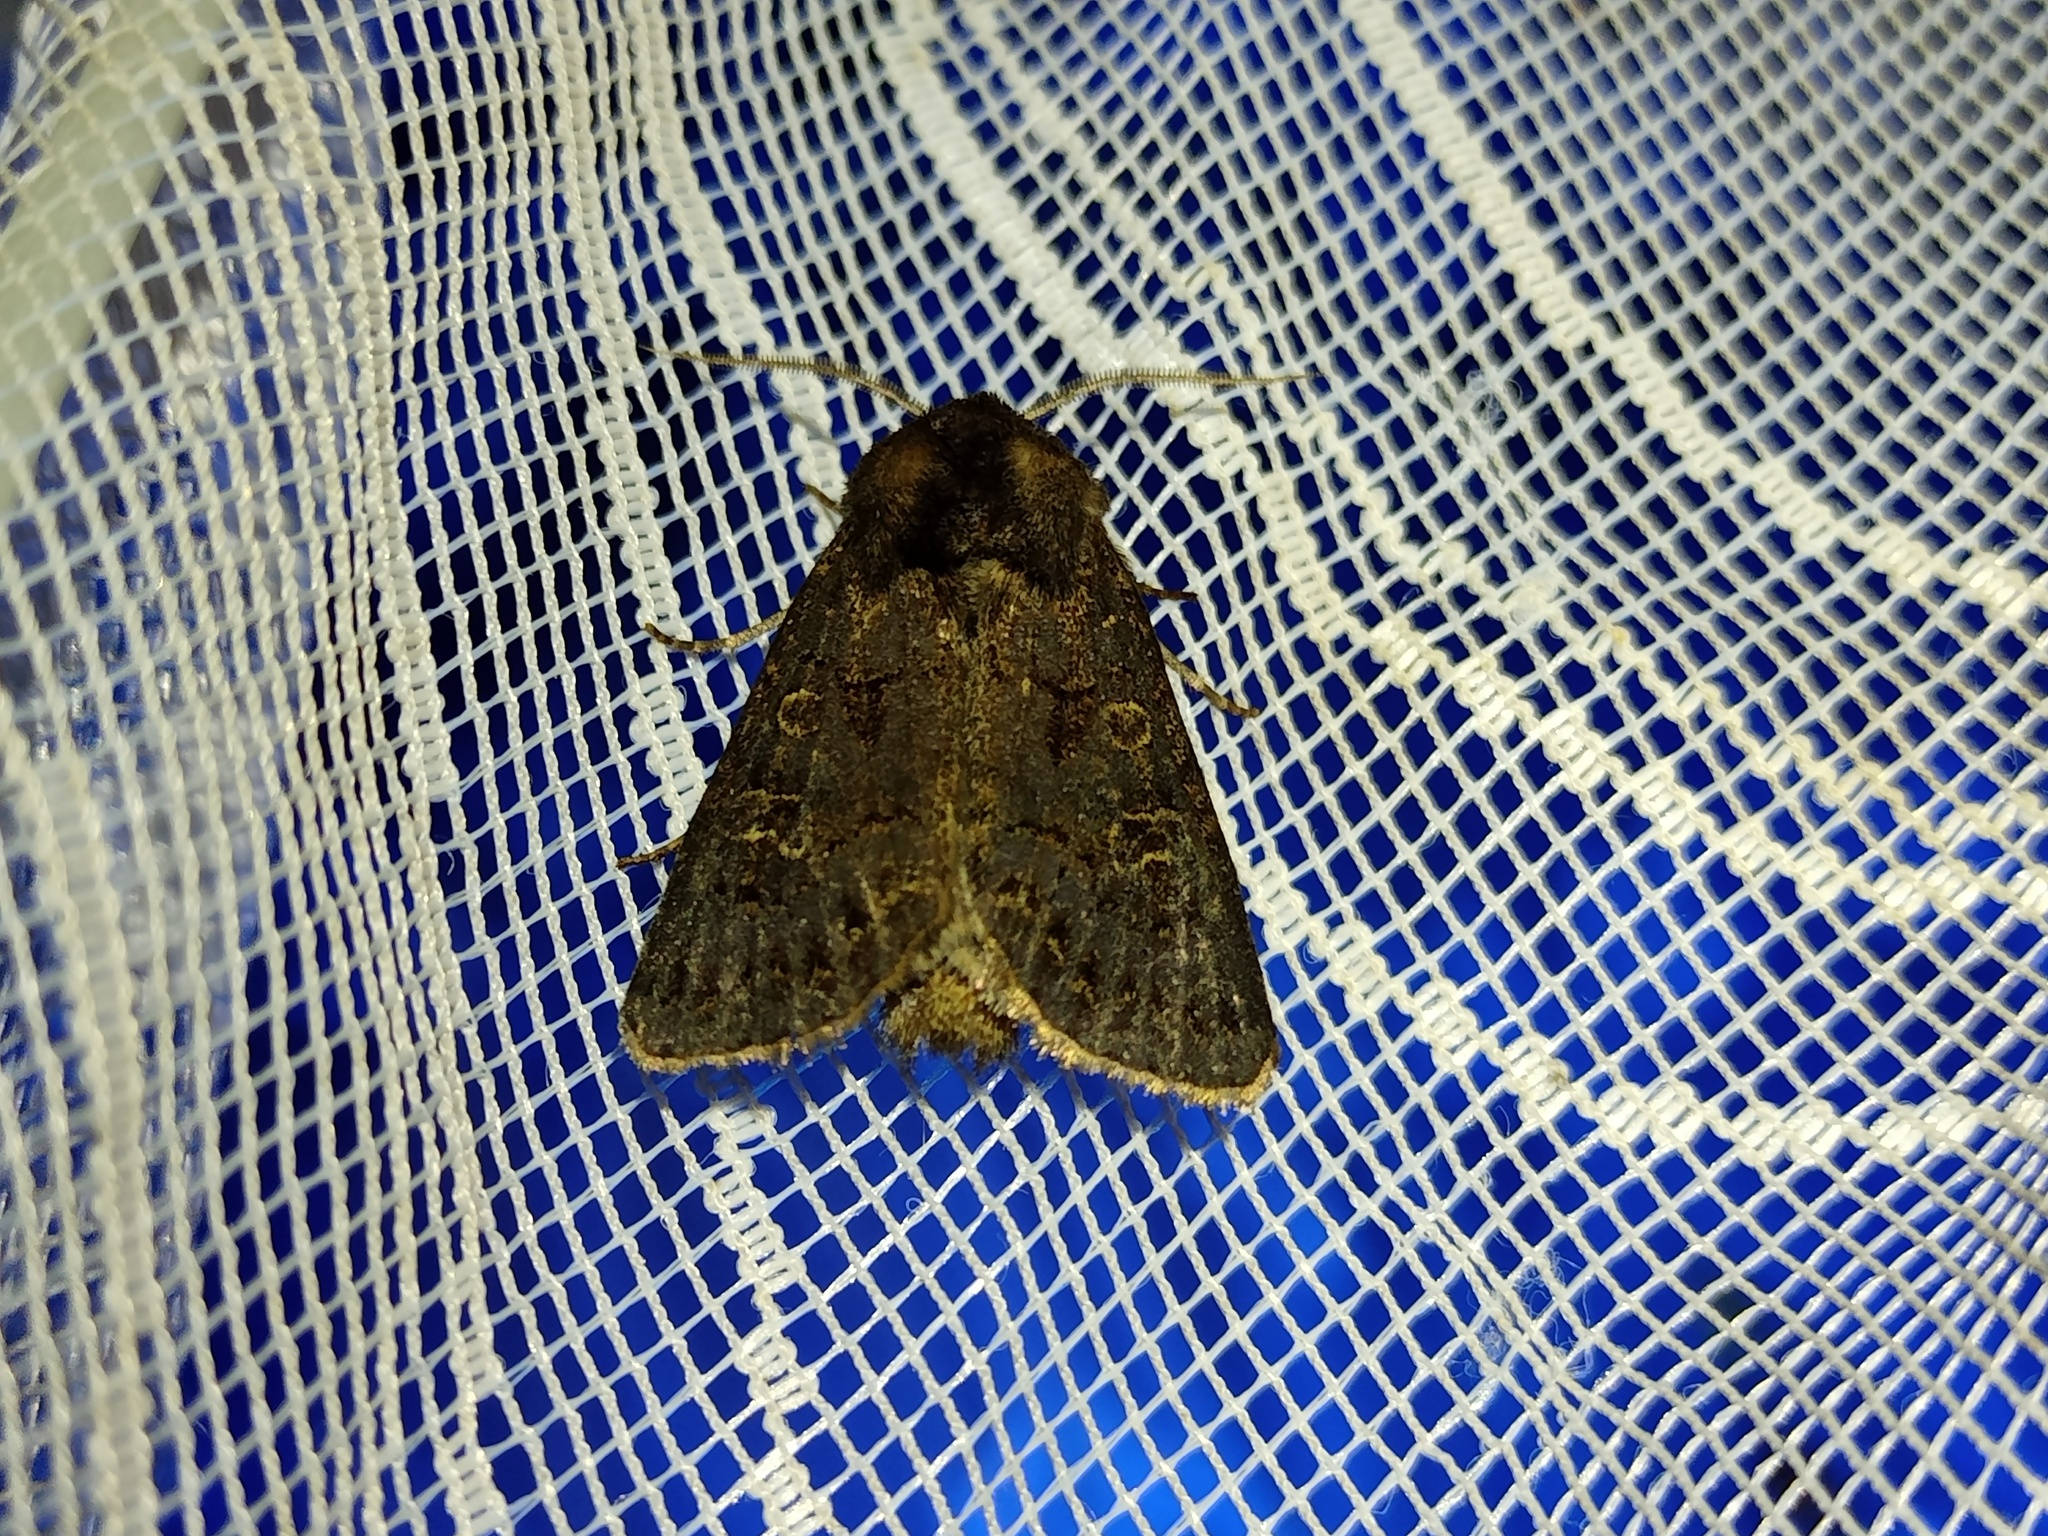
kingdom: Animalia
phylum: Arthropoda
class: Insecta
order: Lepidoptera
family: Noctuidae
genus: Tholera
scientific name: Tholera cespitis
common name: Hedge rustic
